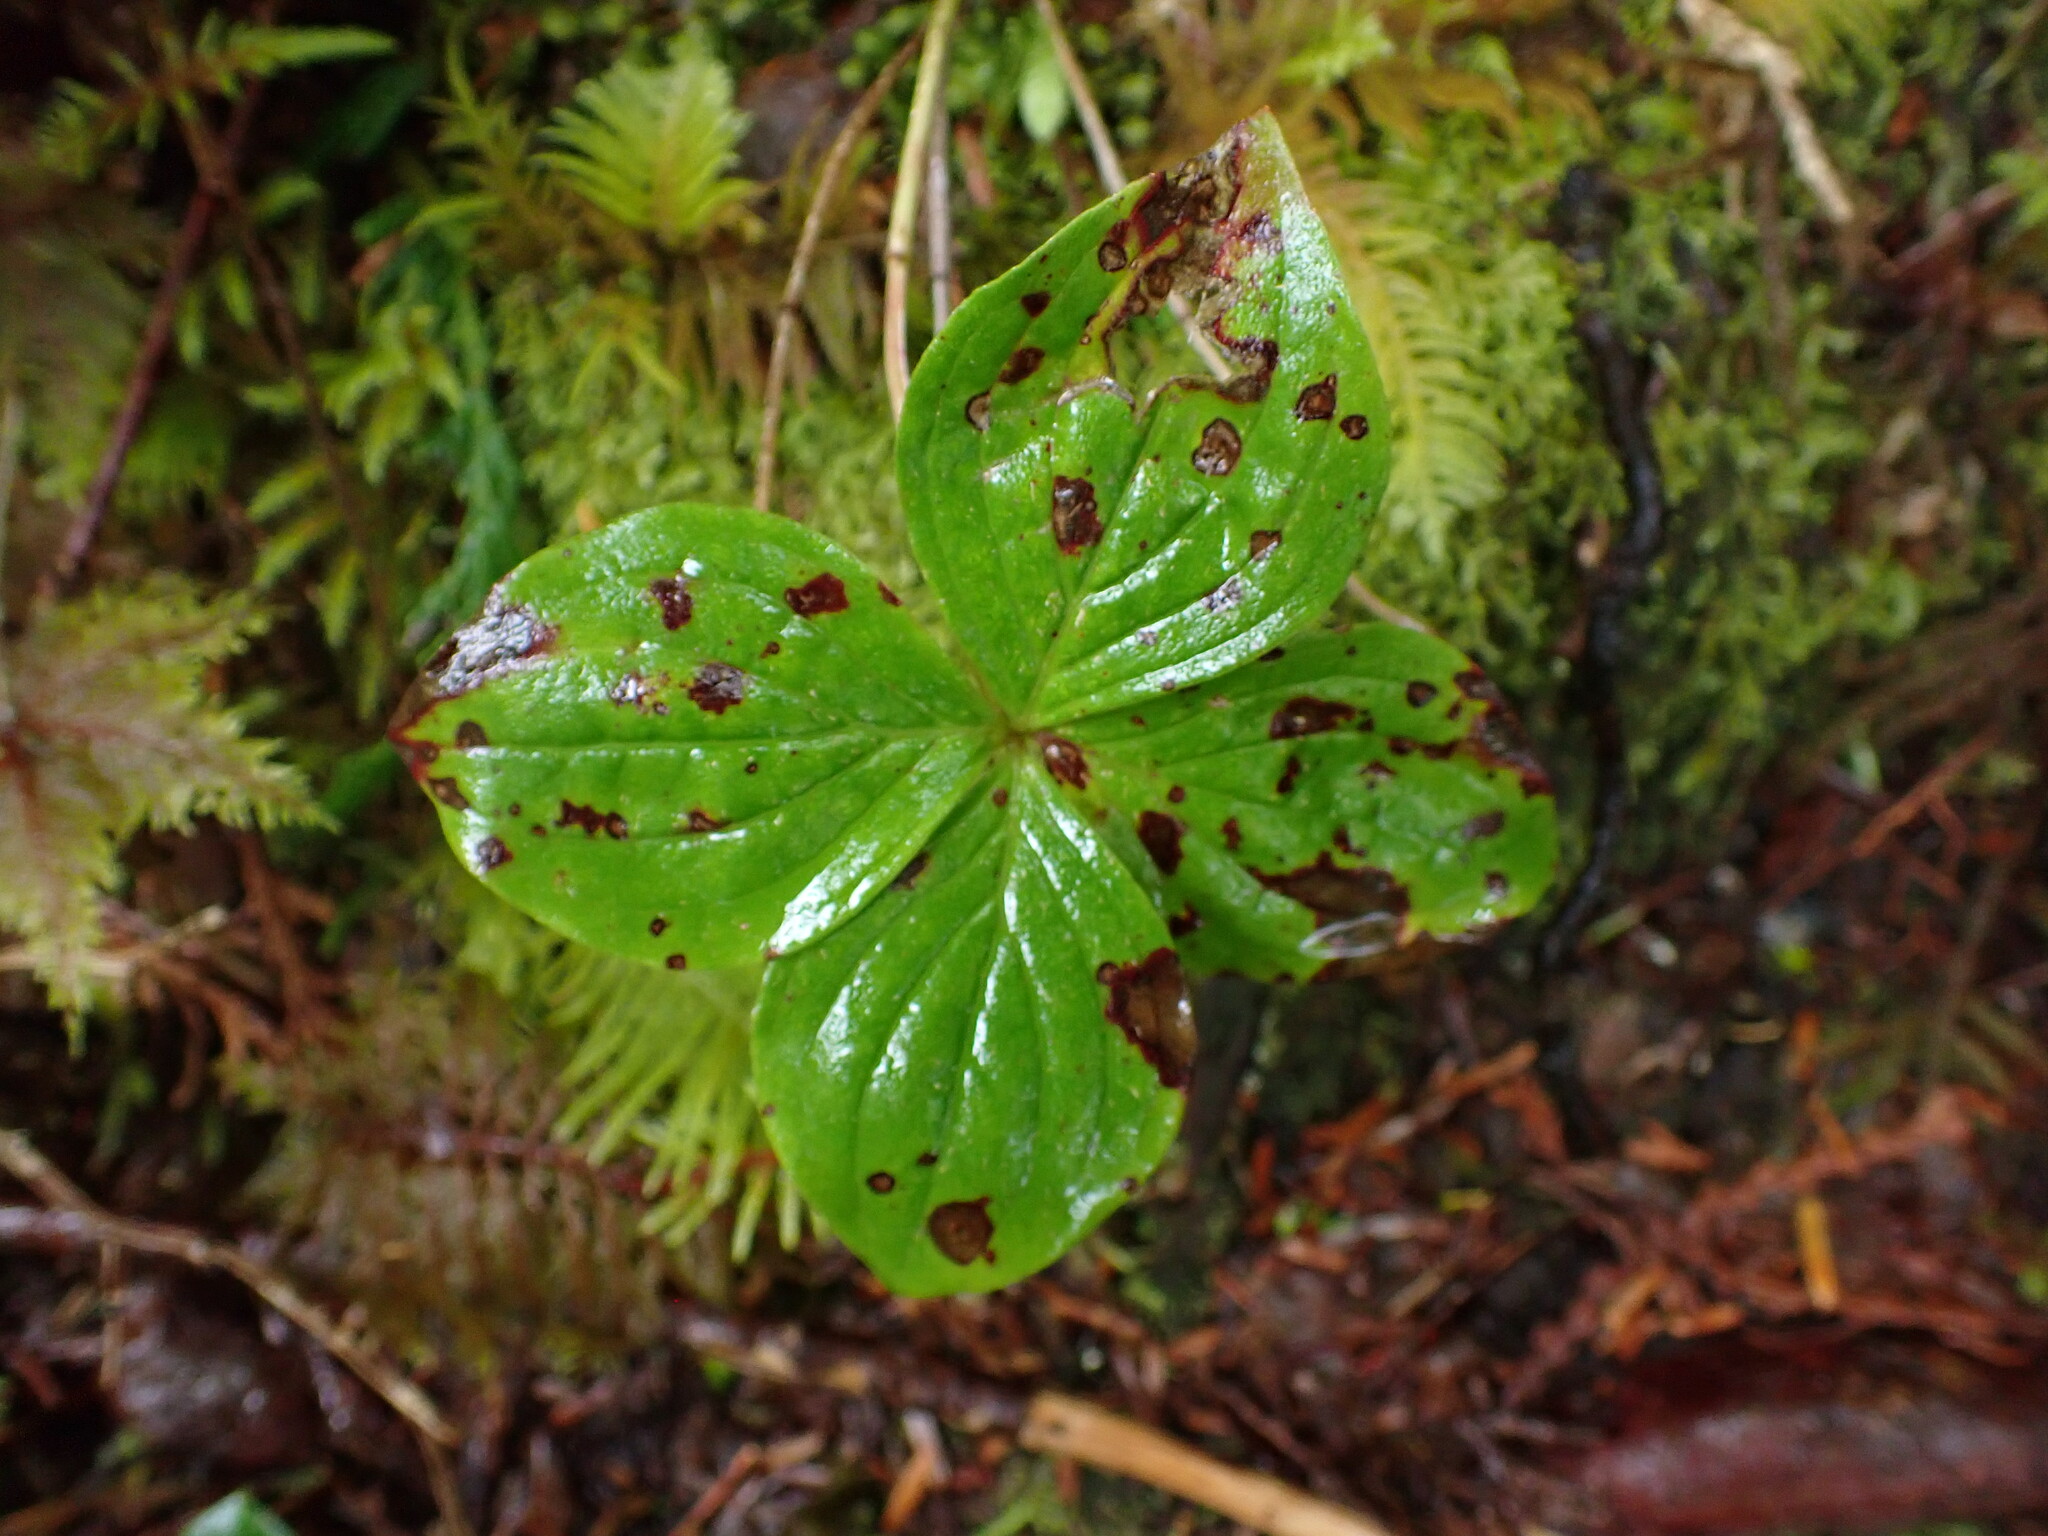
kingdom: Plantae
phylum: Tracheophyta
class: Magnoliopsida
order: Cornales
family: Cornaceae
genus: Cornus
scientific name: Cornus unalaschkensis
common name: Alaska bunchberry
